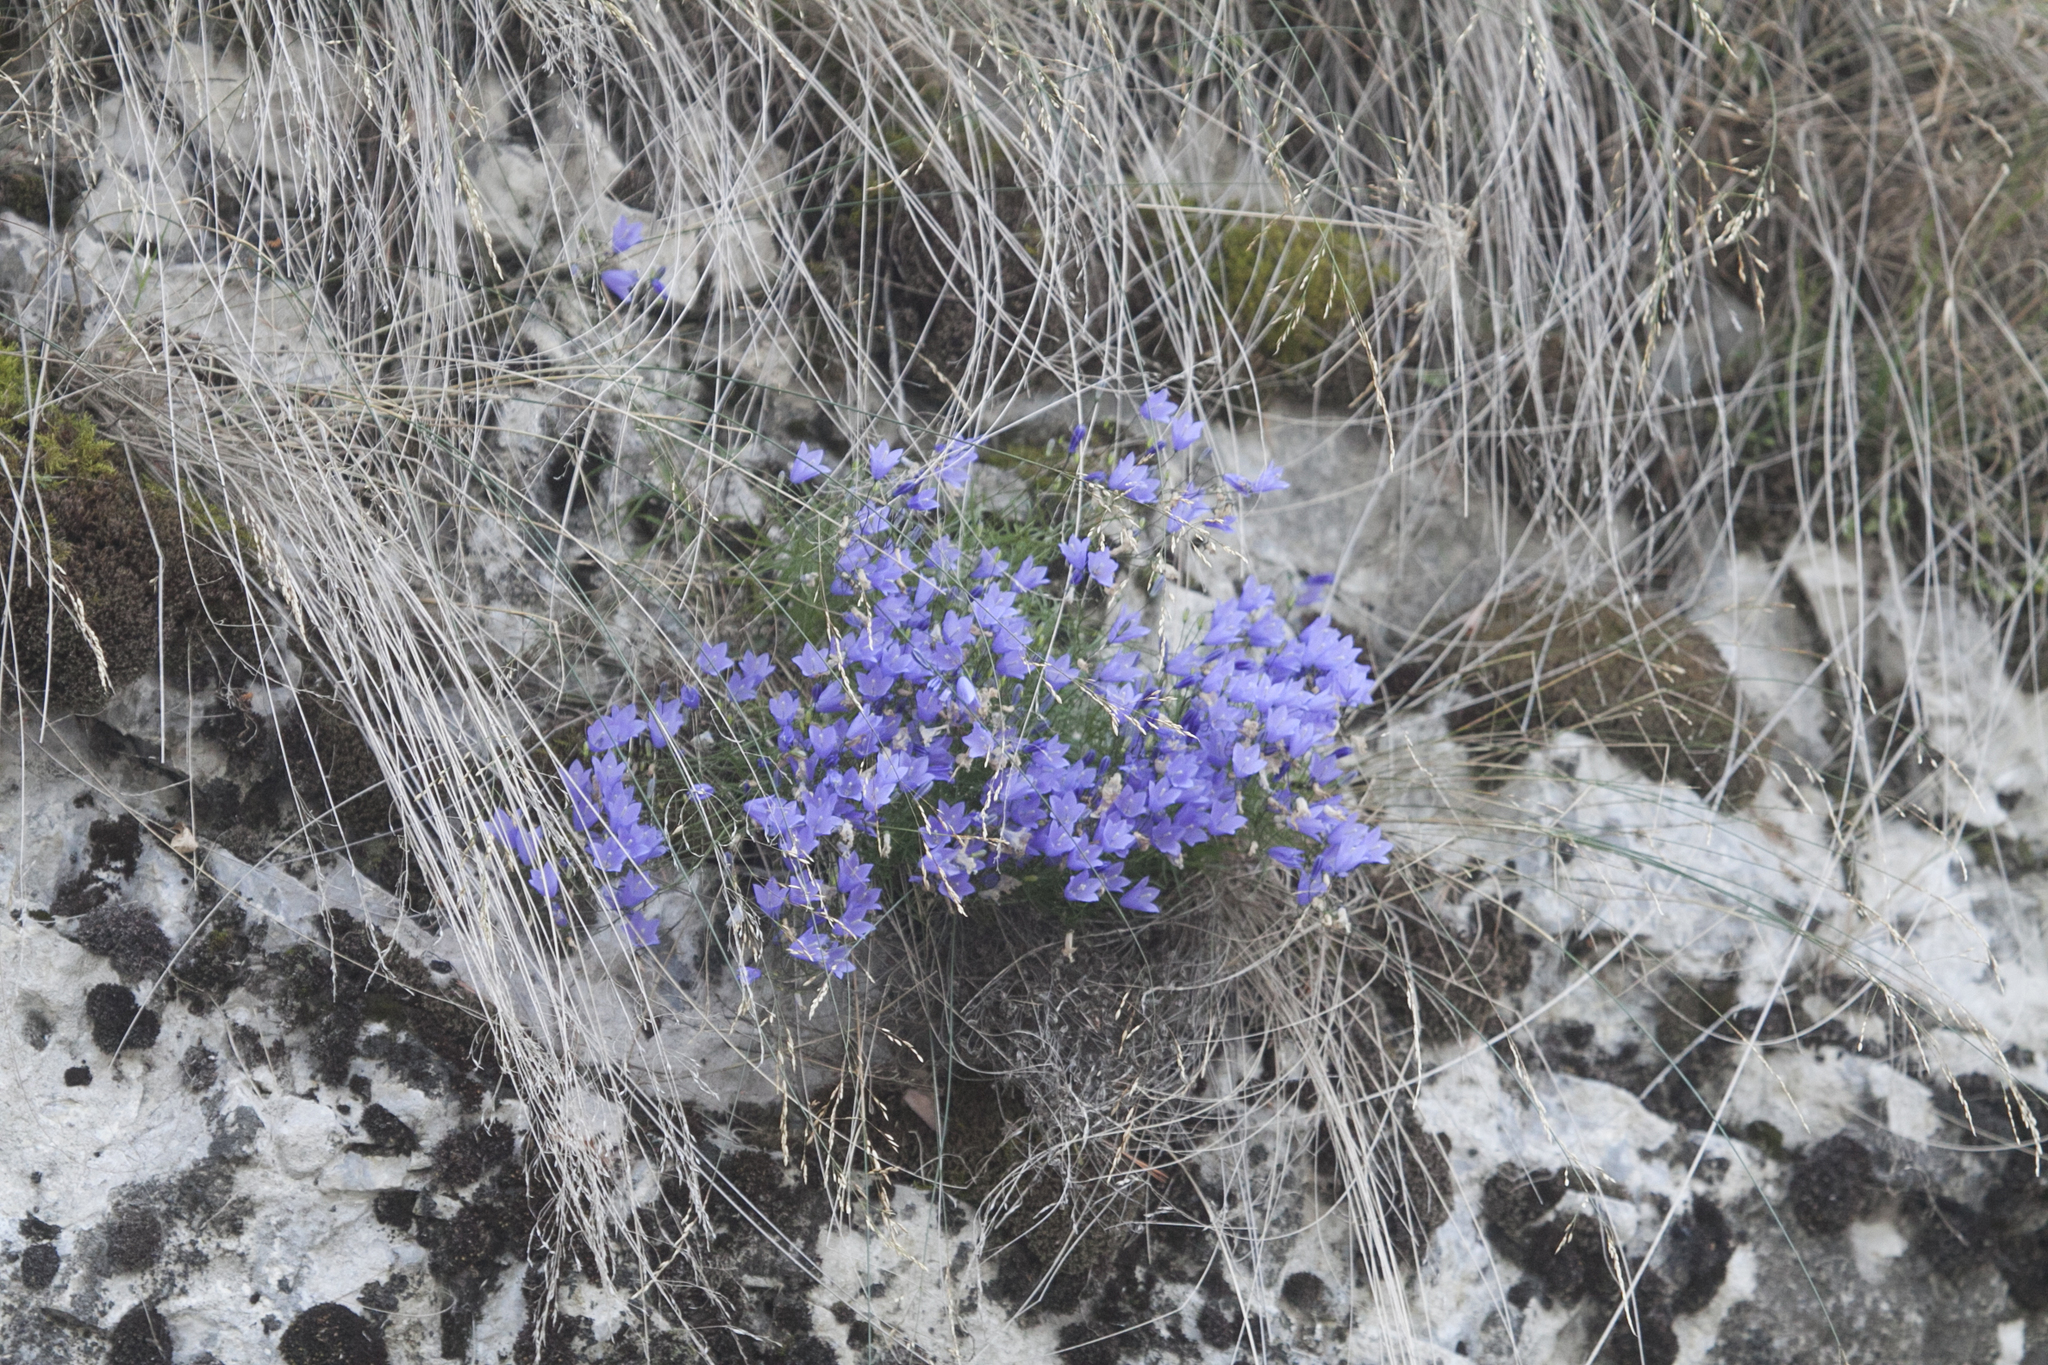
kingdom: Plantae
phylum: Tracheophyta
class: Magnoliopsida
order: Asterales
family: Campanulaceae
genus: Campanula
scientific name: Campanula rotundifolia
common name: Harebell
